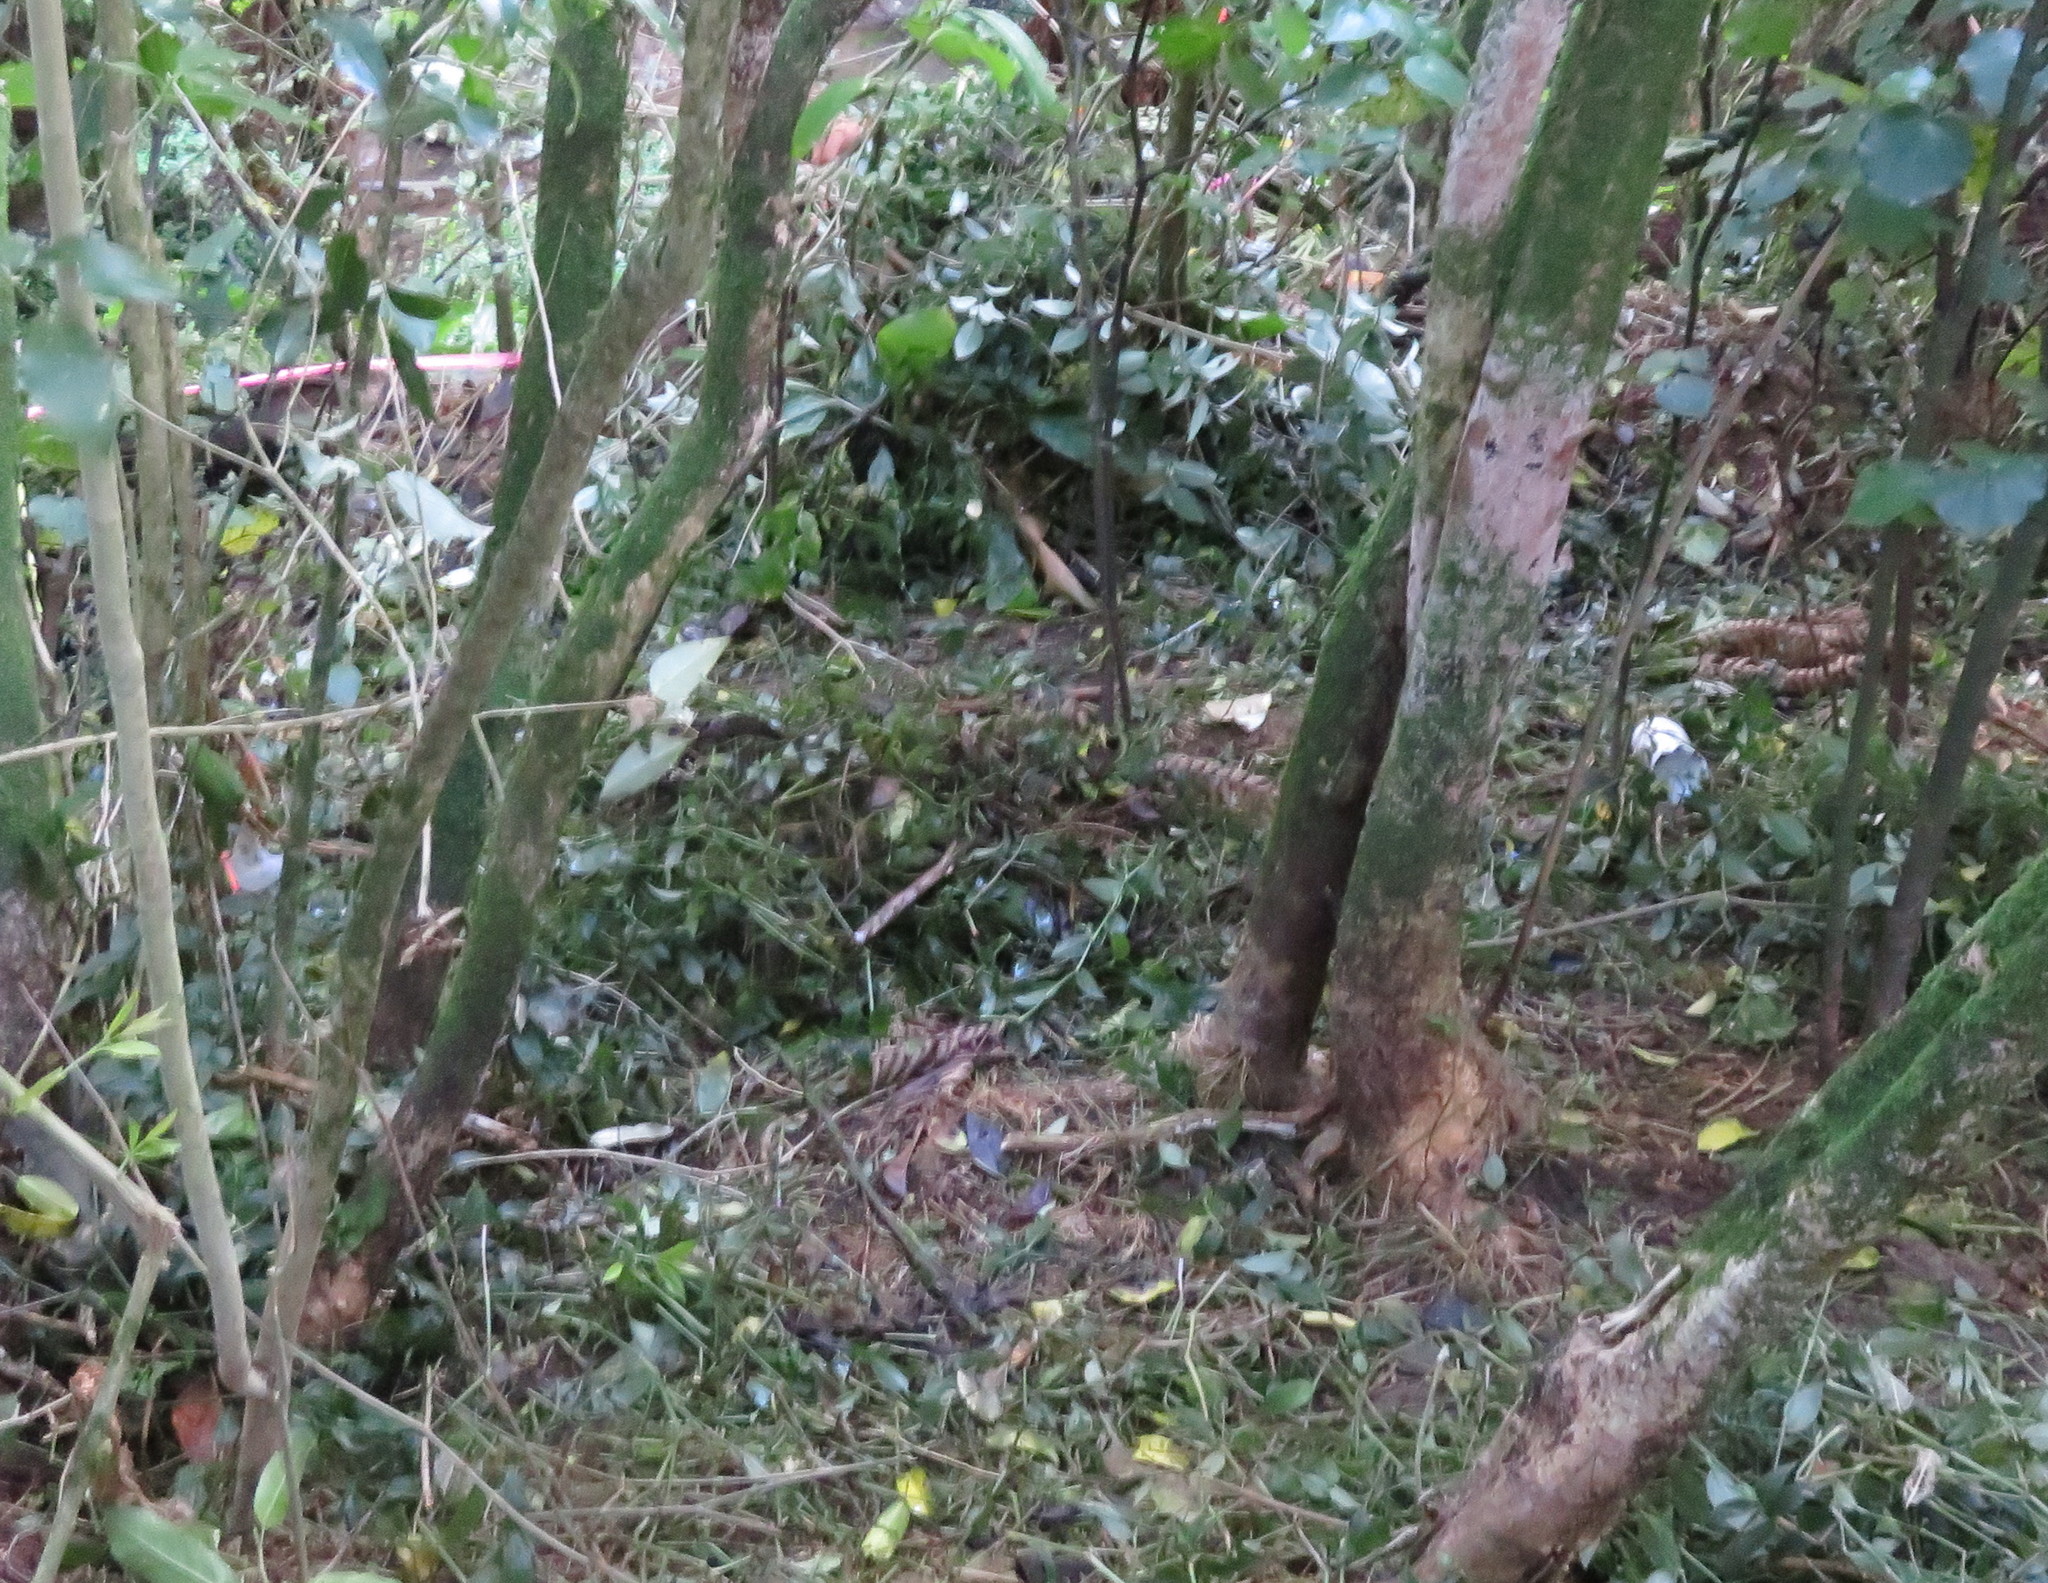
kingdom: Plantae
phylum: Tracheophyta
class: Liliopsida
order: Commelinales
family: Commelinaceae
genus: Tradescantia
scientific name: Tradescantia fluminensis
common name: Wandering-jew
